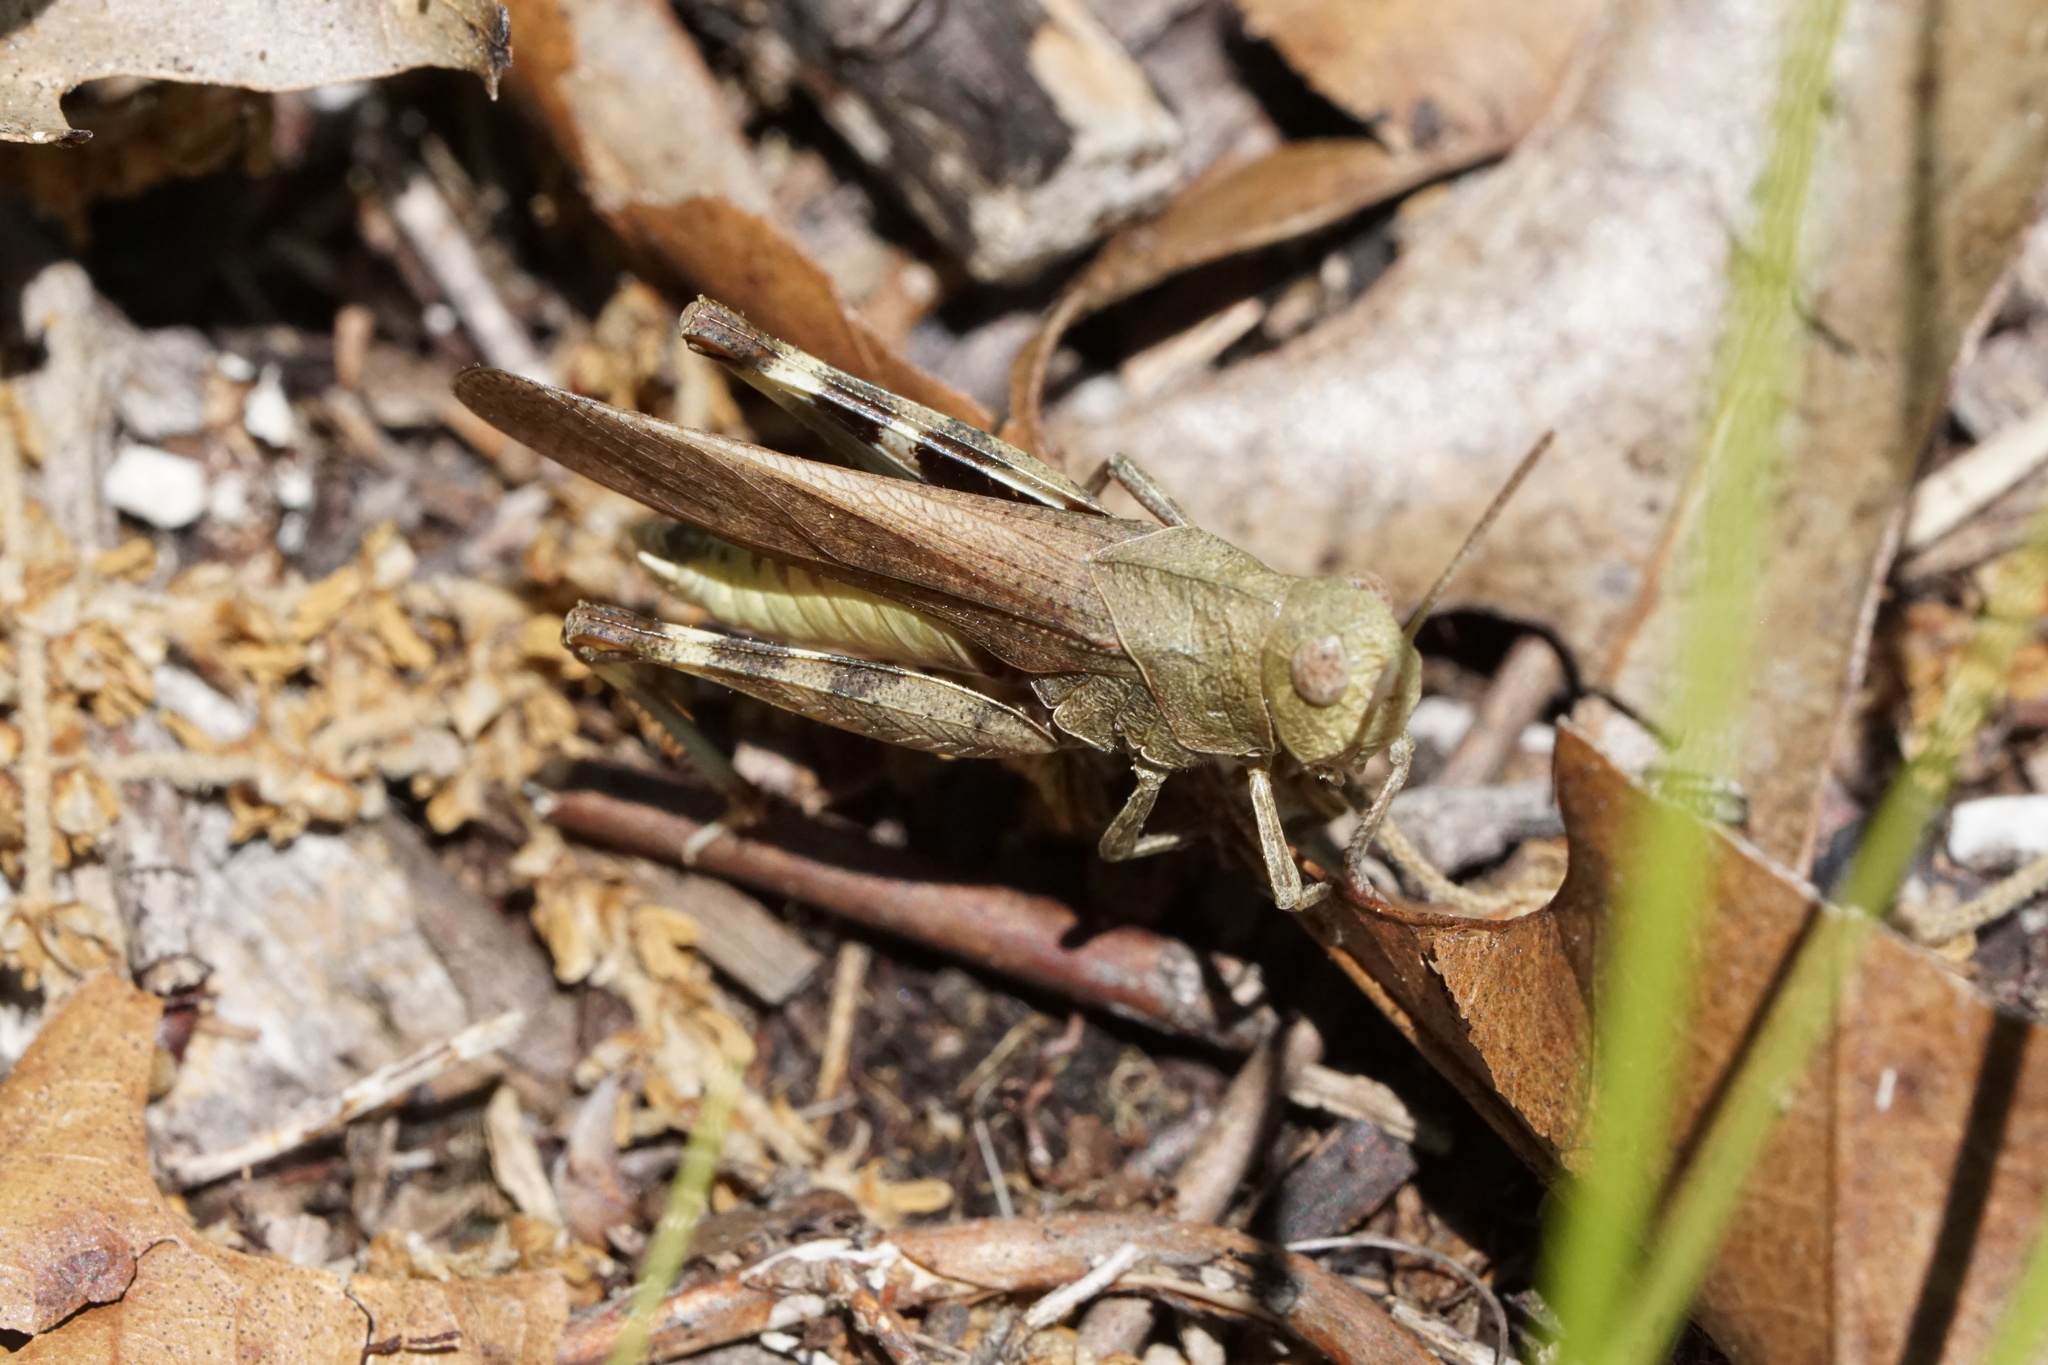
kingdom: Animalia
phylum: Arthropoda
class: Insecta
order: Orthoptera
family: Acrididae
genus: Arphia
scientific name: Arphia sulphurea
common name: Spring yellow-winged locust
